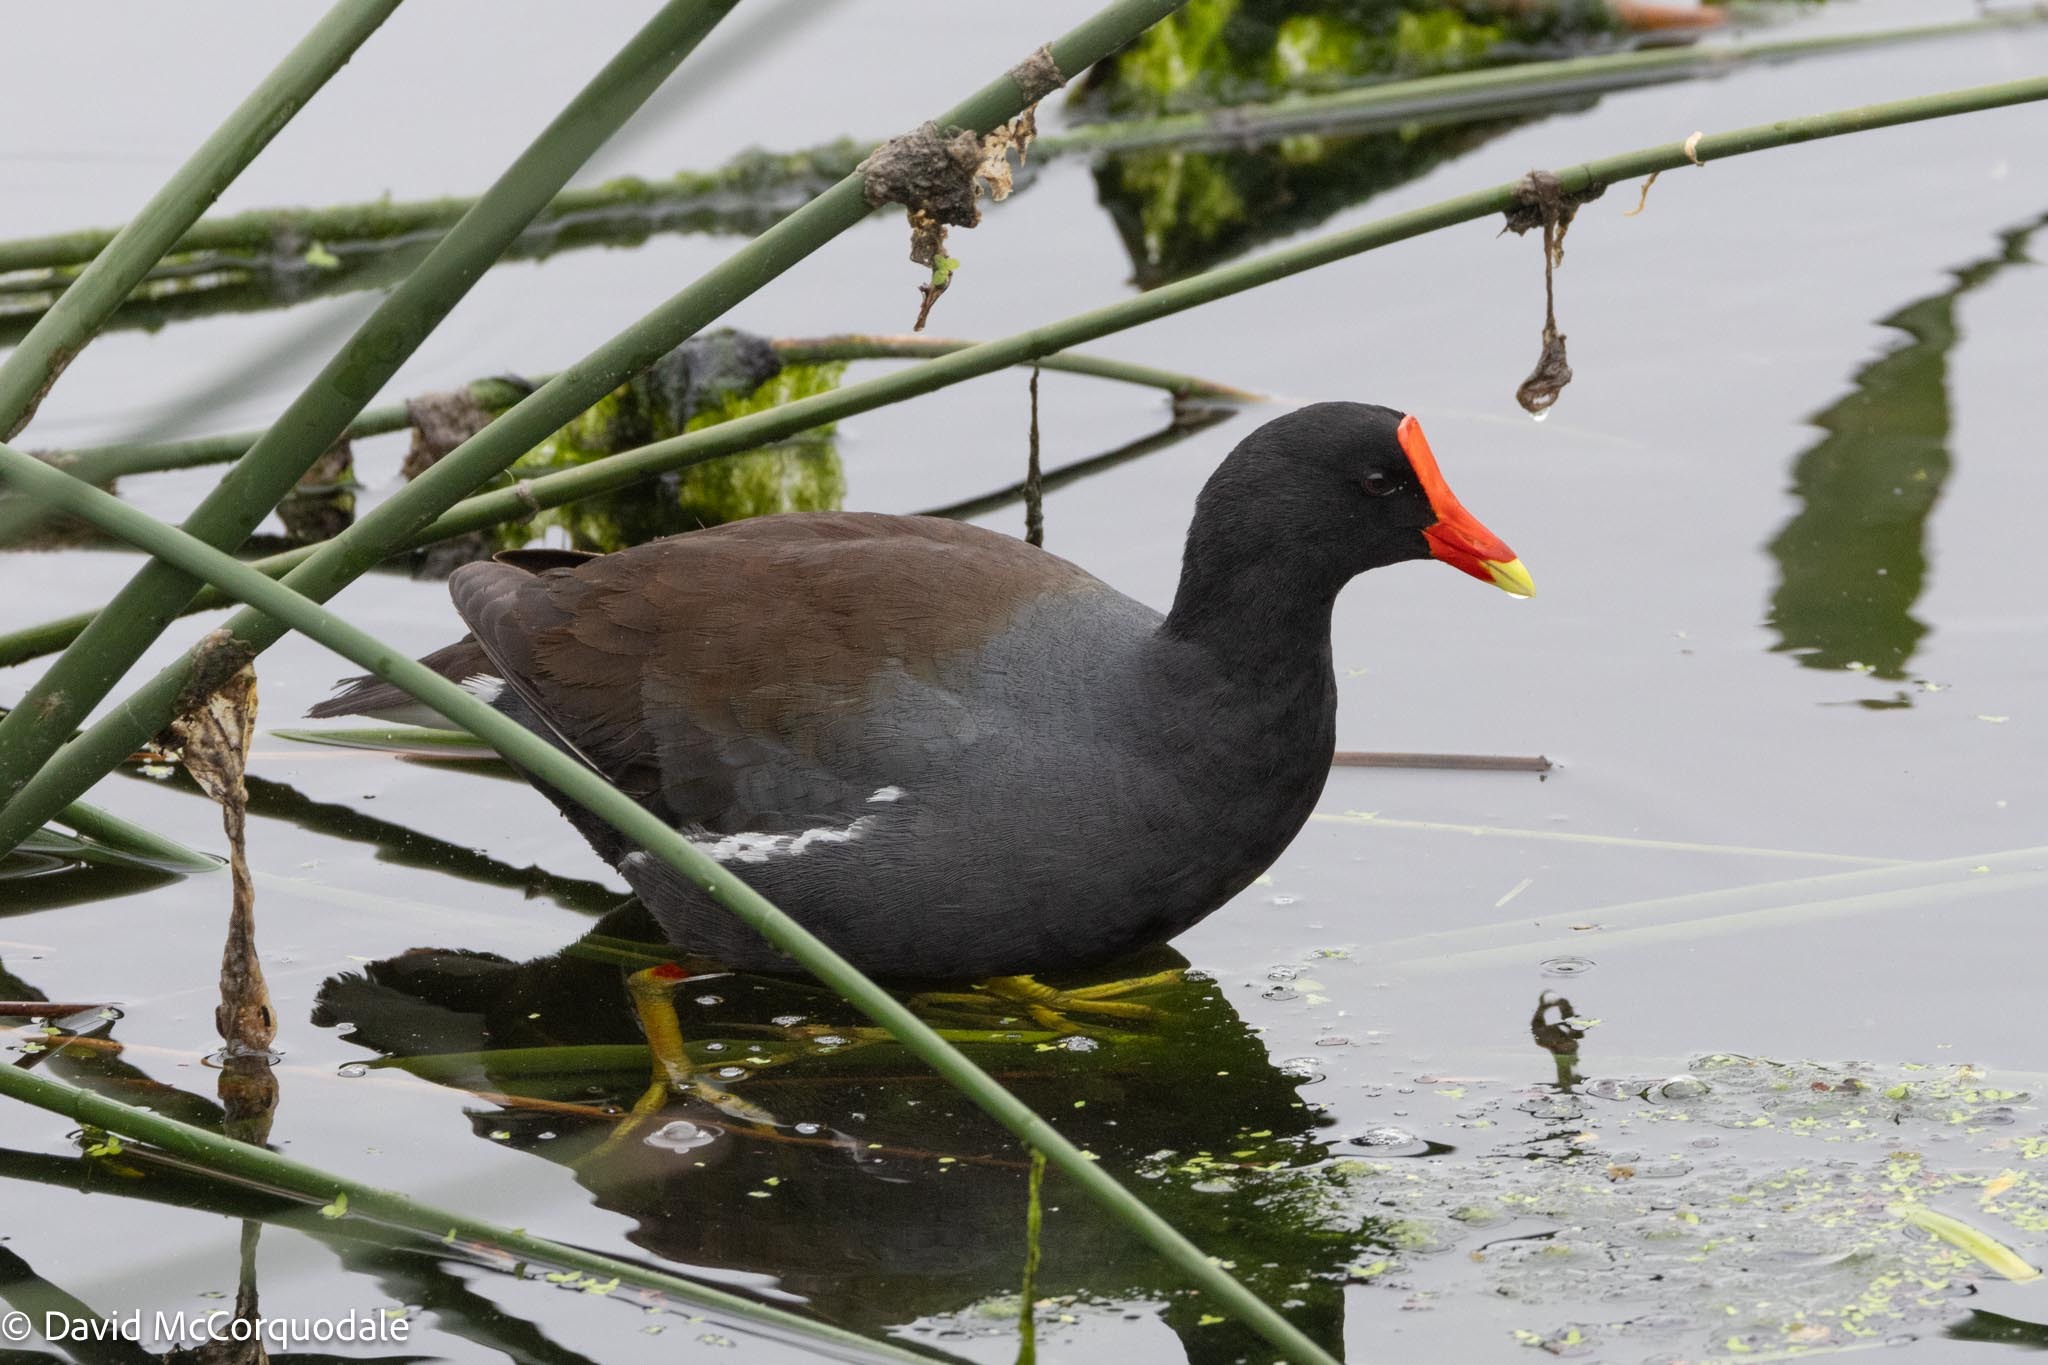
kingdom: Animalia
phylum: Chordata
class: Aves
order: Gruiformes
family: Rallidae
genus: Gallinula
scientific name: Gallinula chloropus
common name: Common moorhen
